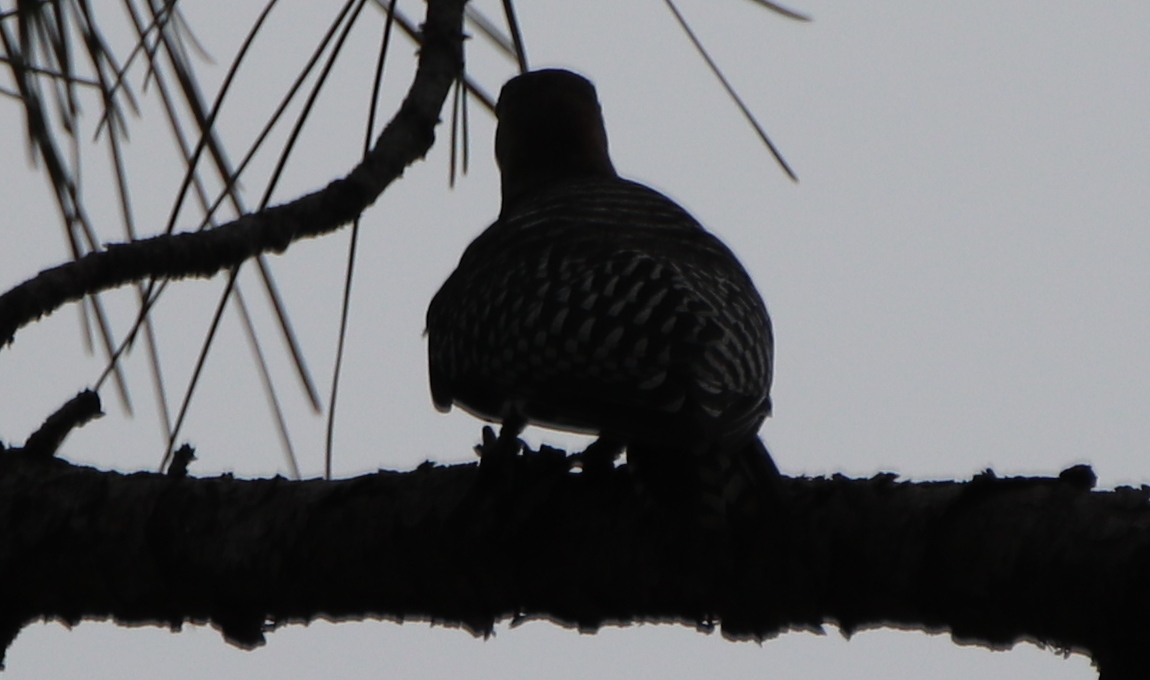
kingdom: Animalia
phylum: Chordata
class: Aves
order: Piciformes
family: Picidae
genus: Melanerpes
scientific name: Melanerpes carolinus
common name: Red-bellied woodpecker
